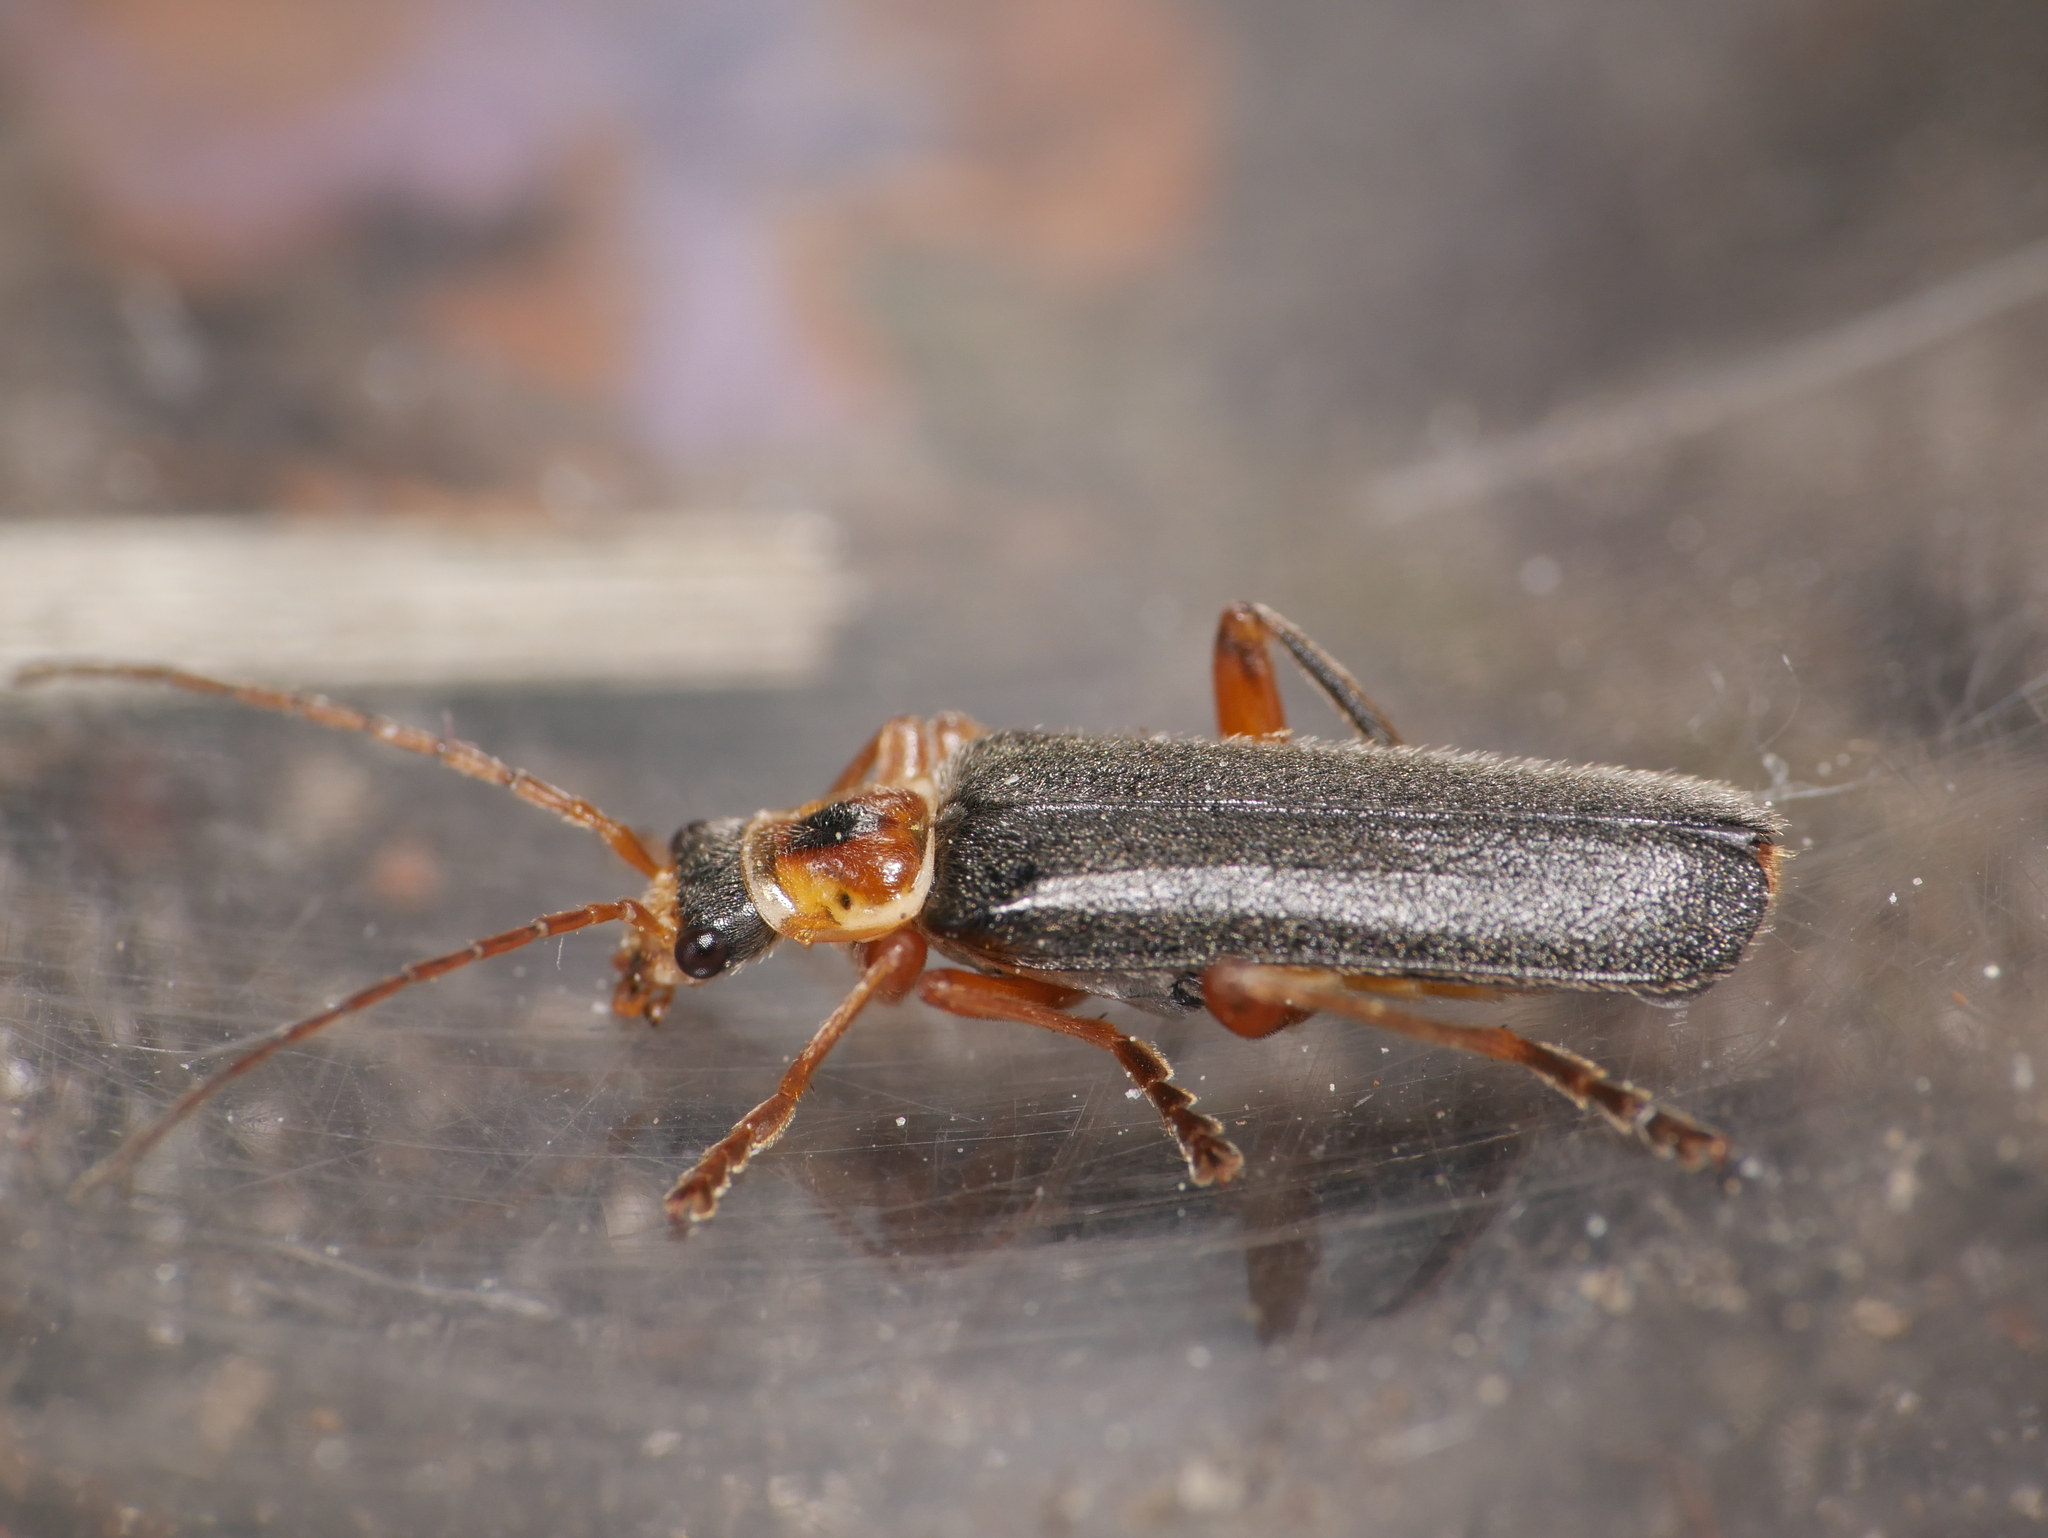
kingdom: Animalia
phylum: Arthropoda
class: Insecta
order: Coleoptera
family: Cantharidae
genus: Cantharis
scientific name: Cantharis nigricans
